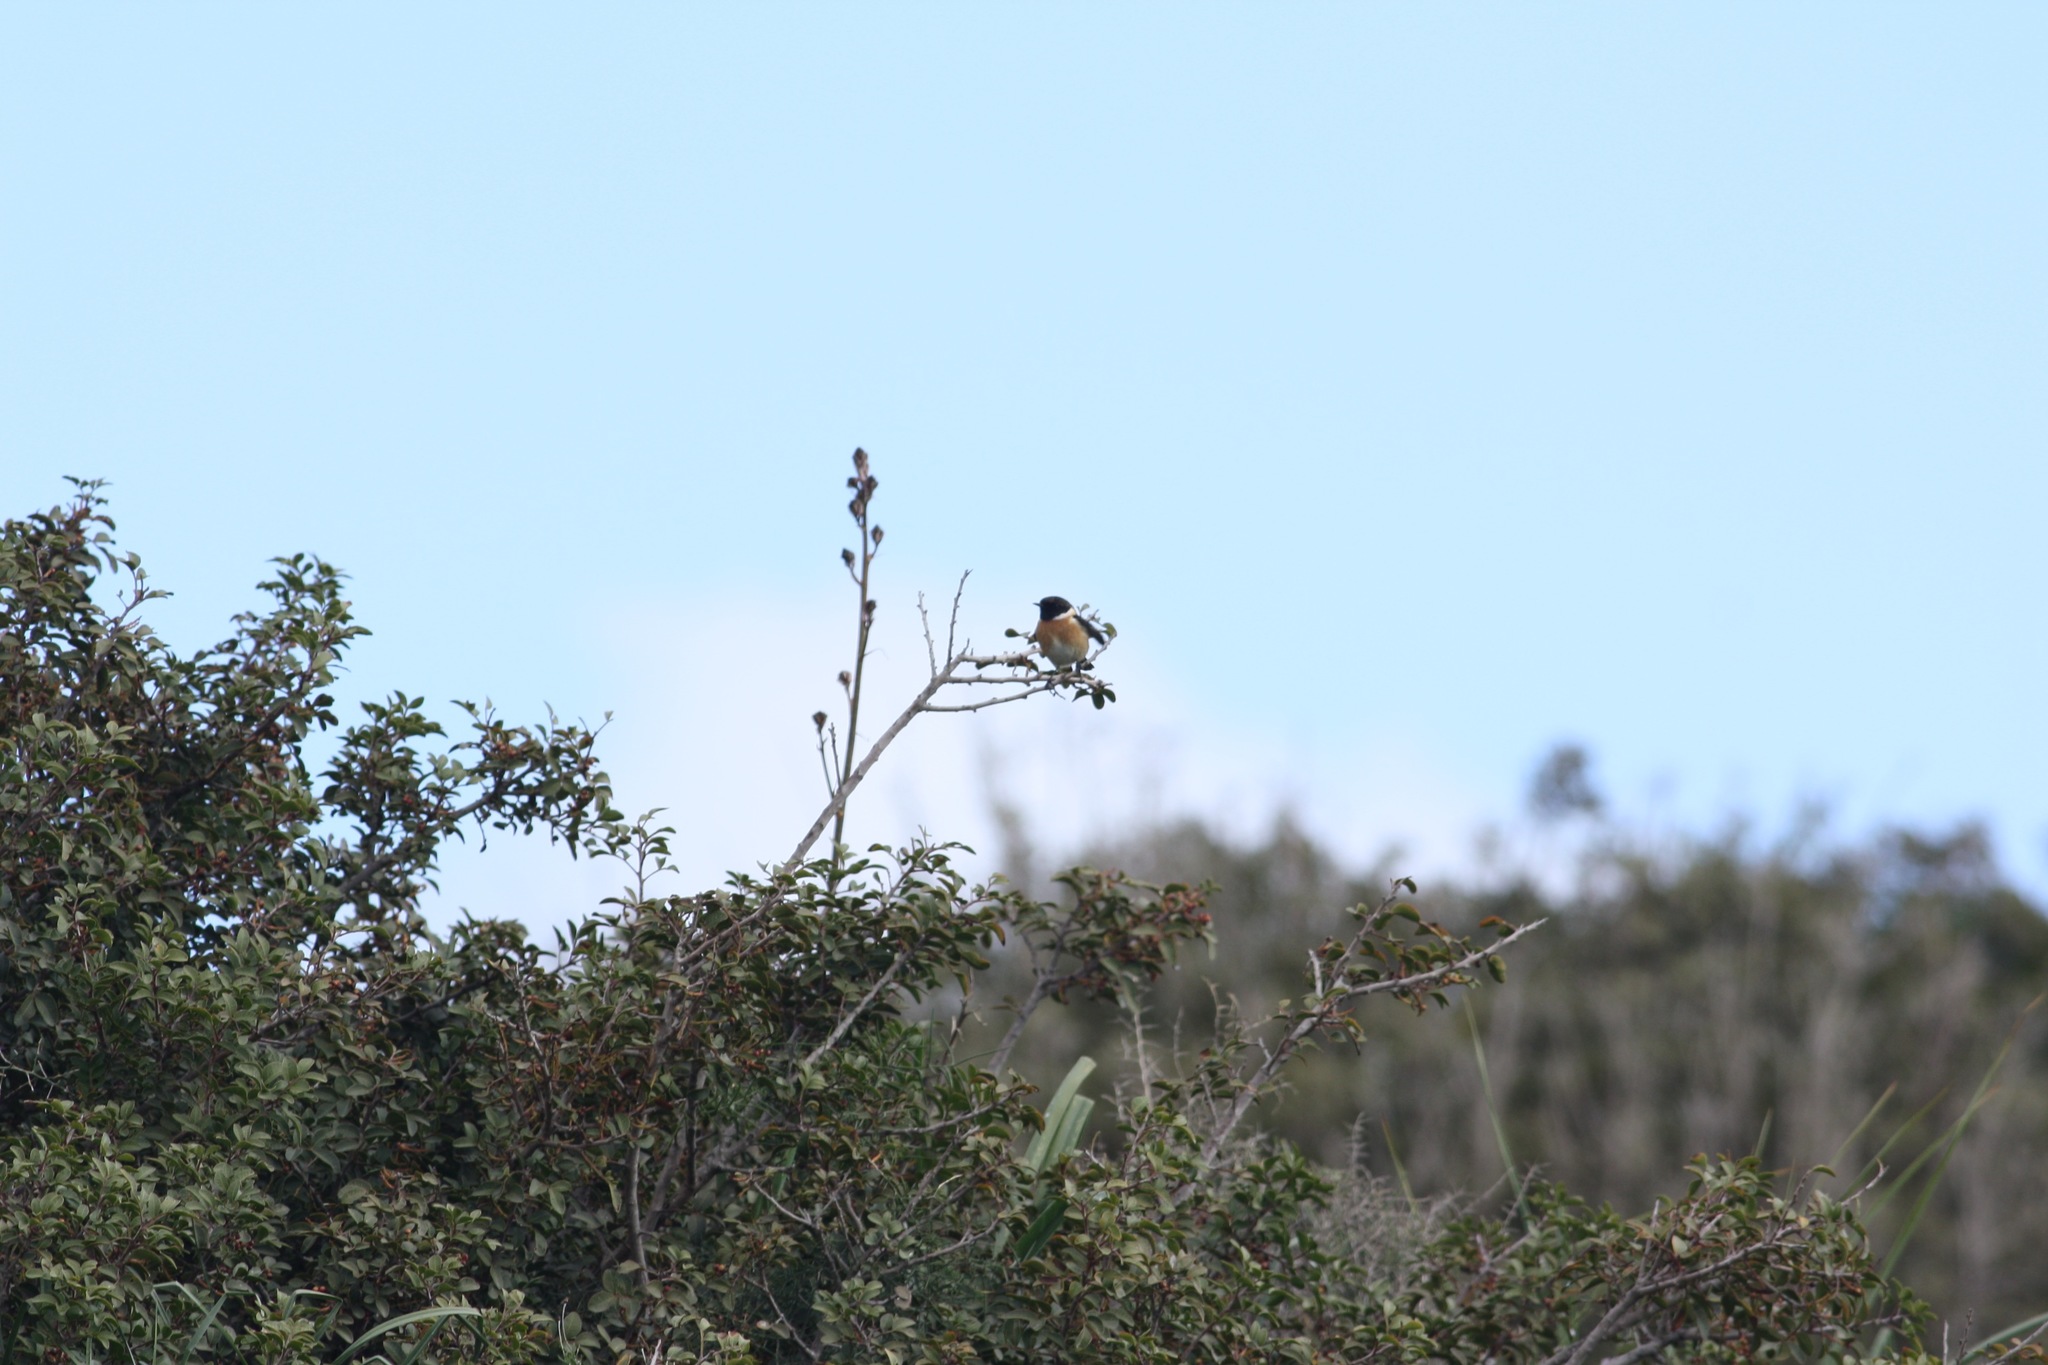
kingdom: Animalia
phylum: Chordata
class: Aves
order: Passeriformes
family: Muscicapidae
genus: Saxicola
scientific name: Saxicola rubicola
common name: European stonechat
